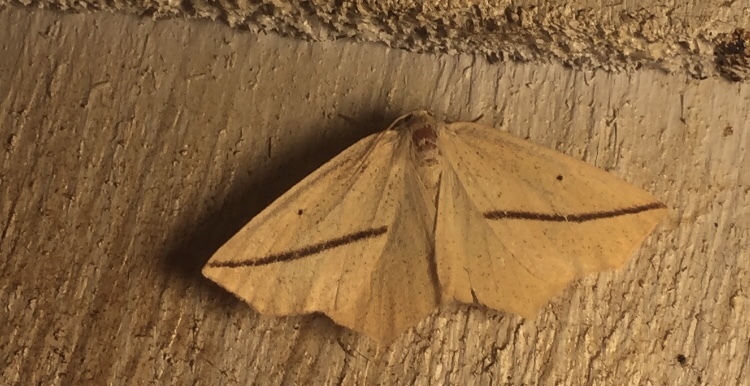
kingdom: Animalia
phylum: Arthropoda
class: Insecta
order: Lepidoptera
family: Geometridae
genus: Tetracis
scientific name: Tetracis crocallata
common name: Yellow slant-line
